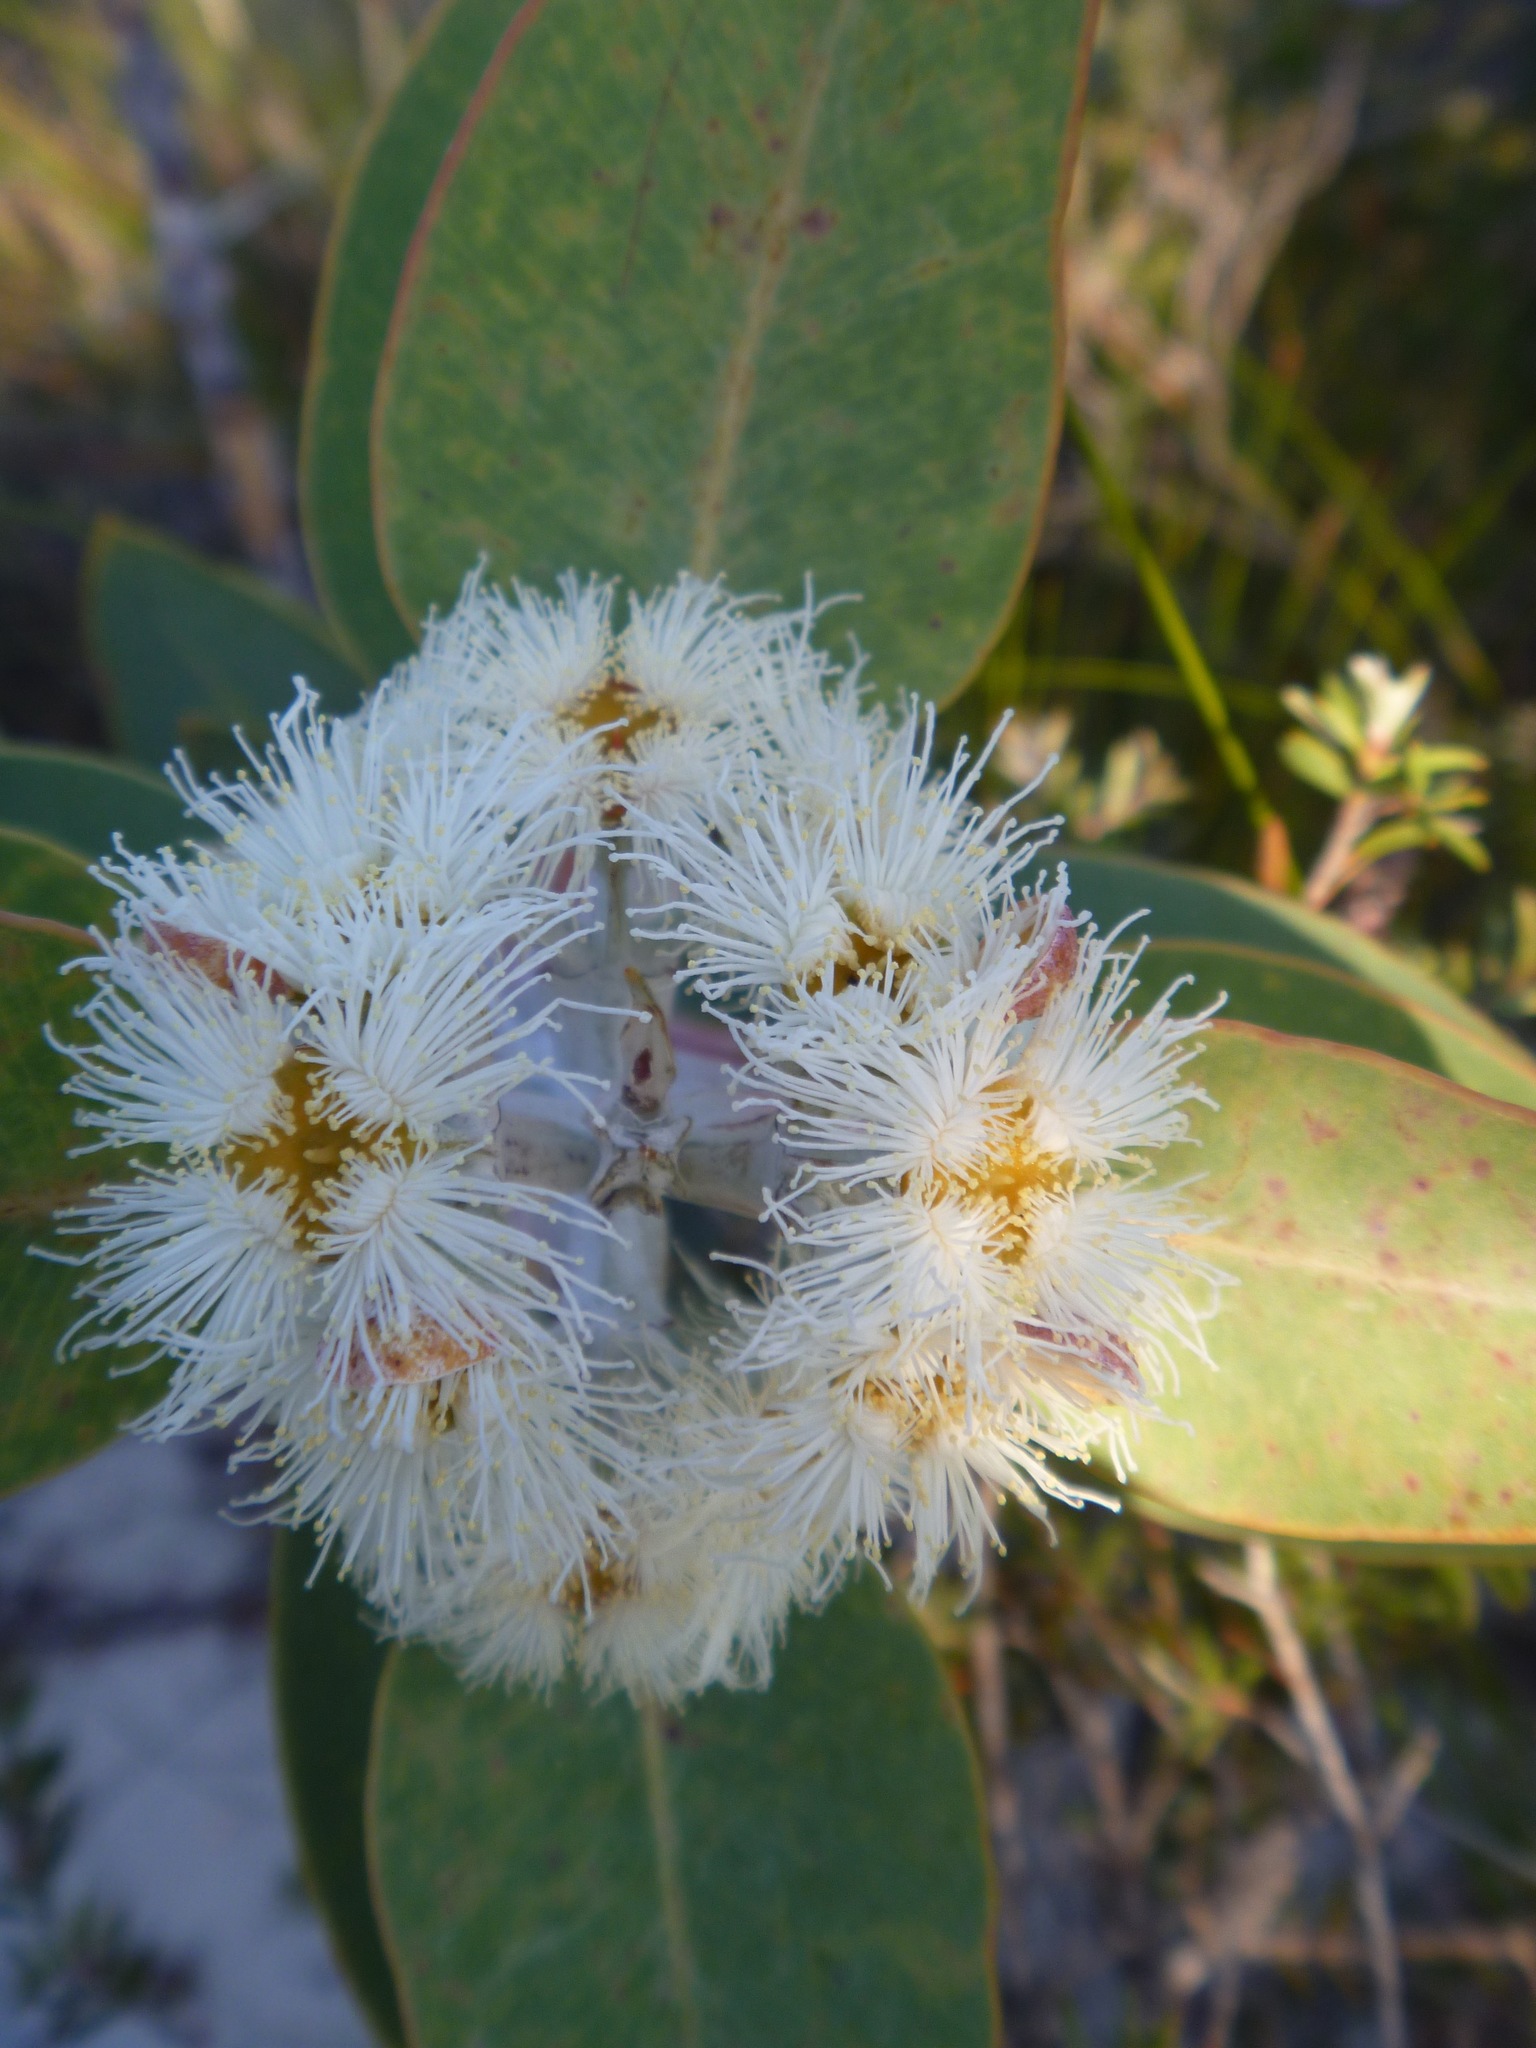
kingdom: Plantae
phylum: Tracheophyta
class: Magnoliopsida
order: Myrtales
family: Myrtaceae
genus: Eucalyptus
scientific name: Eucalyptus tetragona
